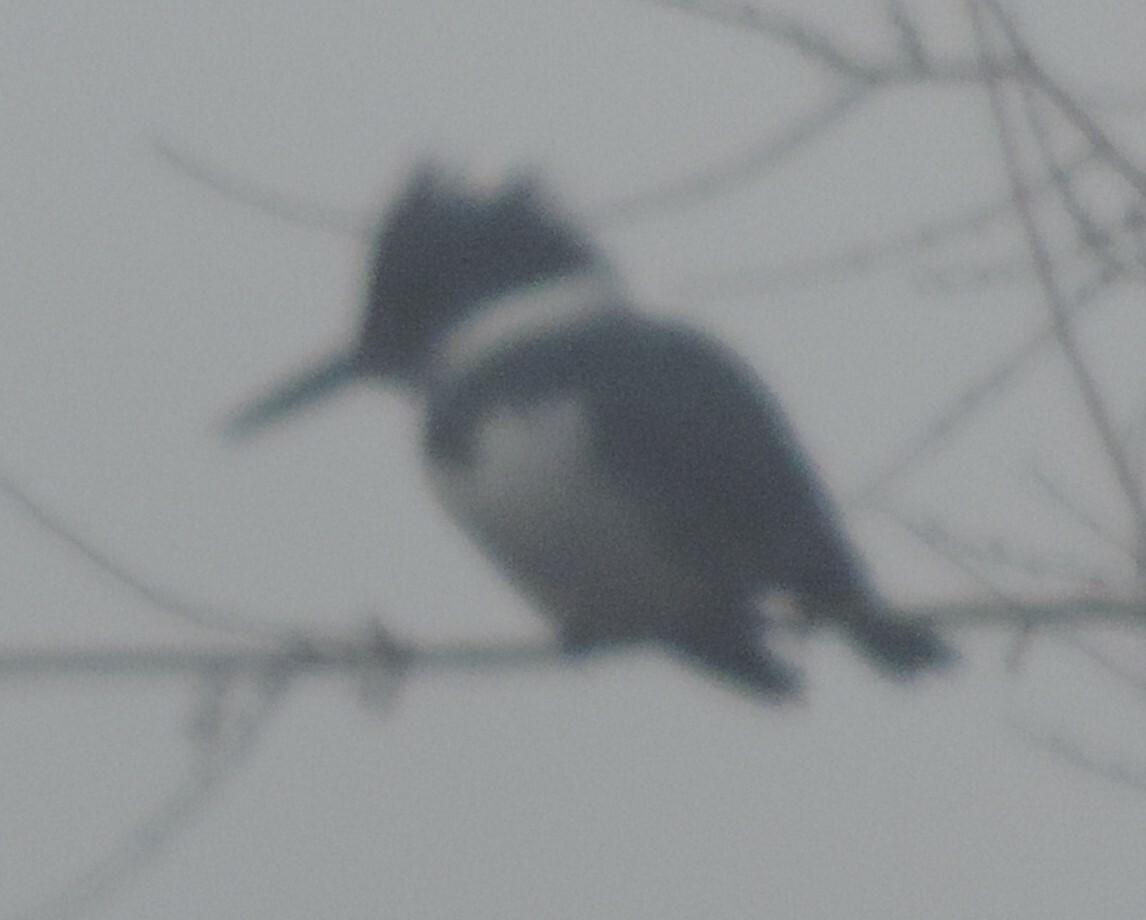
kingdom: Animalia
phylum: Chordata
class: Aves
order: Coraciiformes
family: Alcedinidae
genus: Megaceryle
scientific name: Megaceryle alcyon
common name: Belted kingfisher
